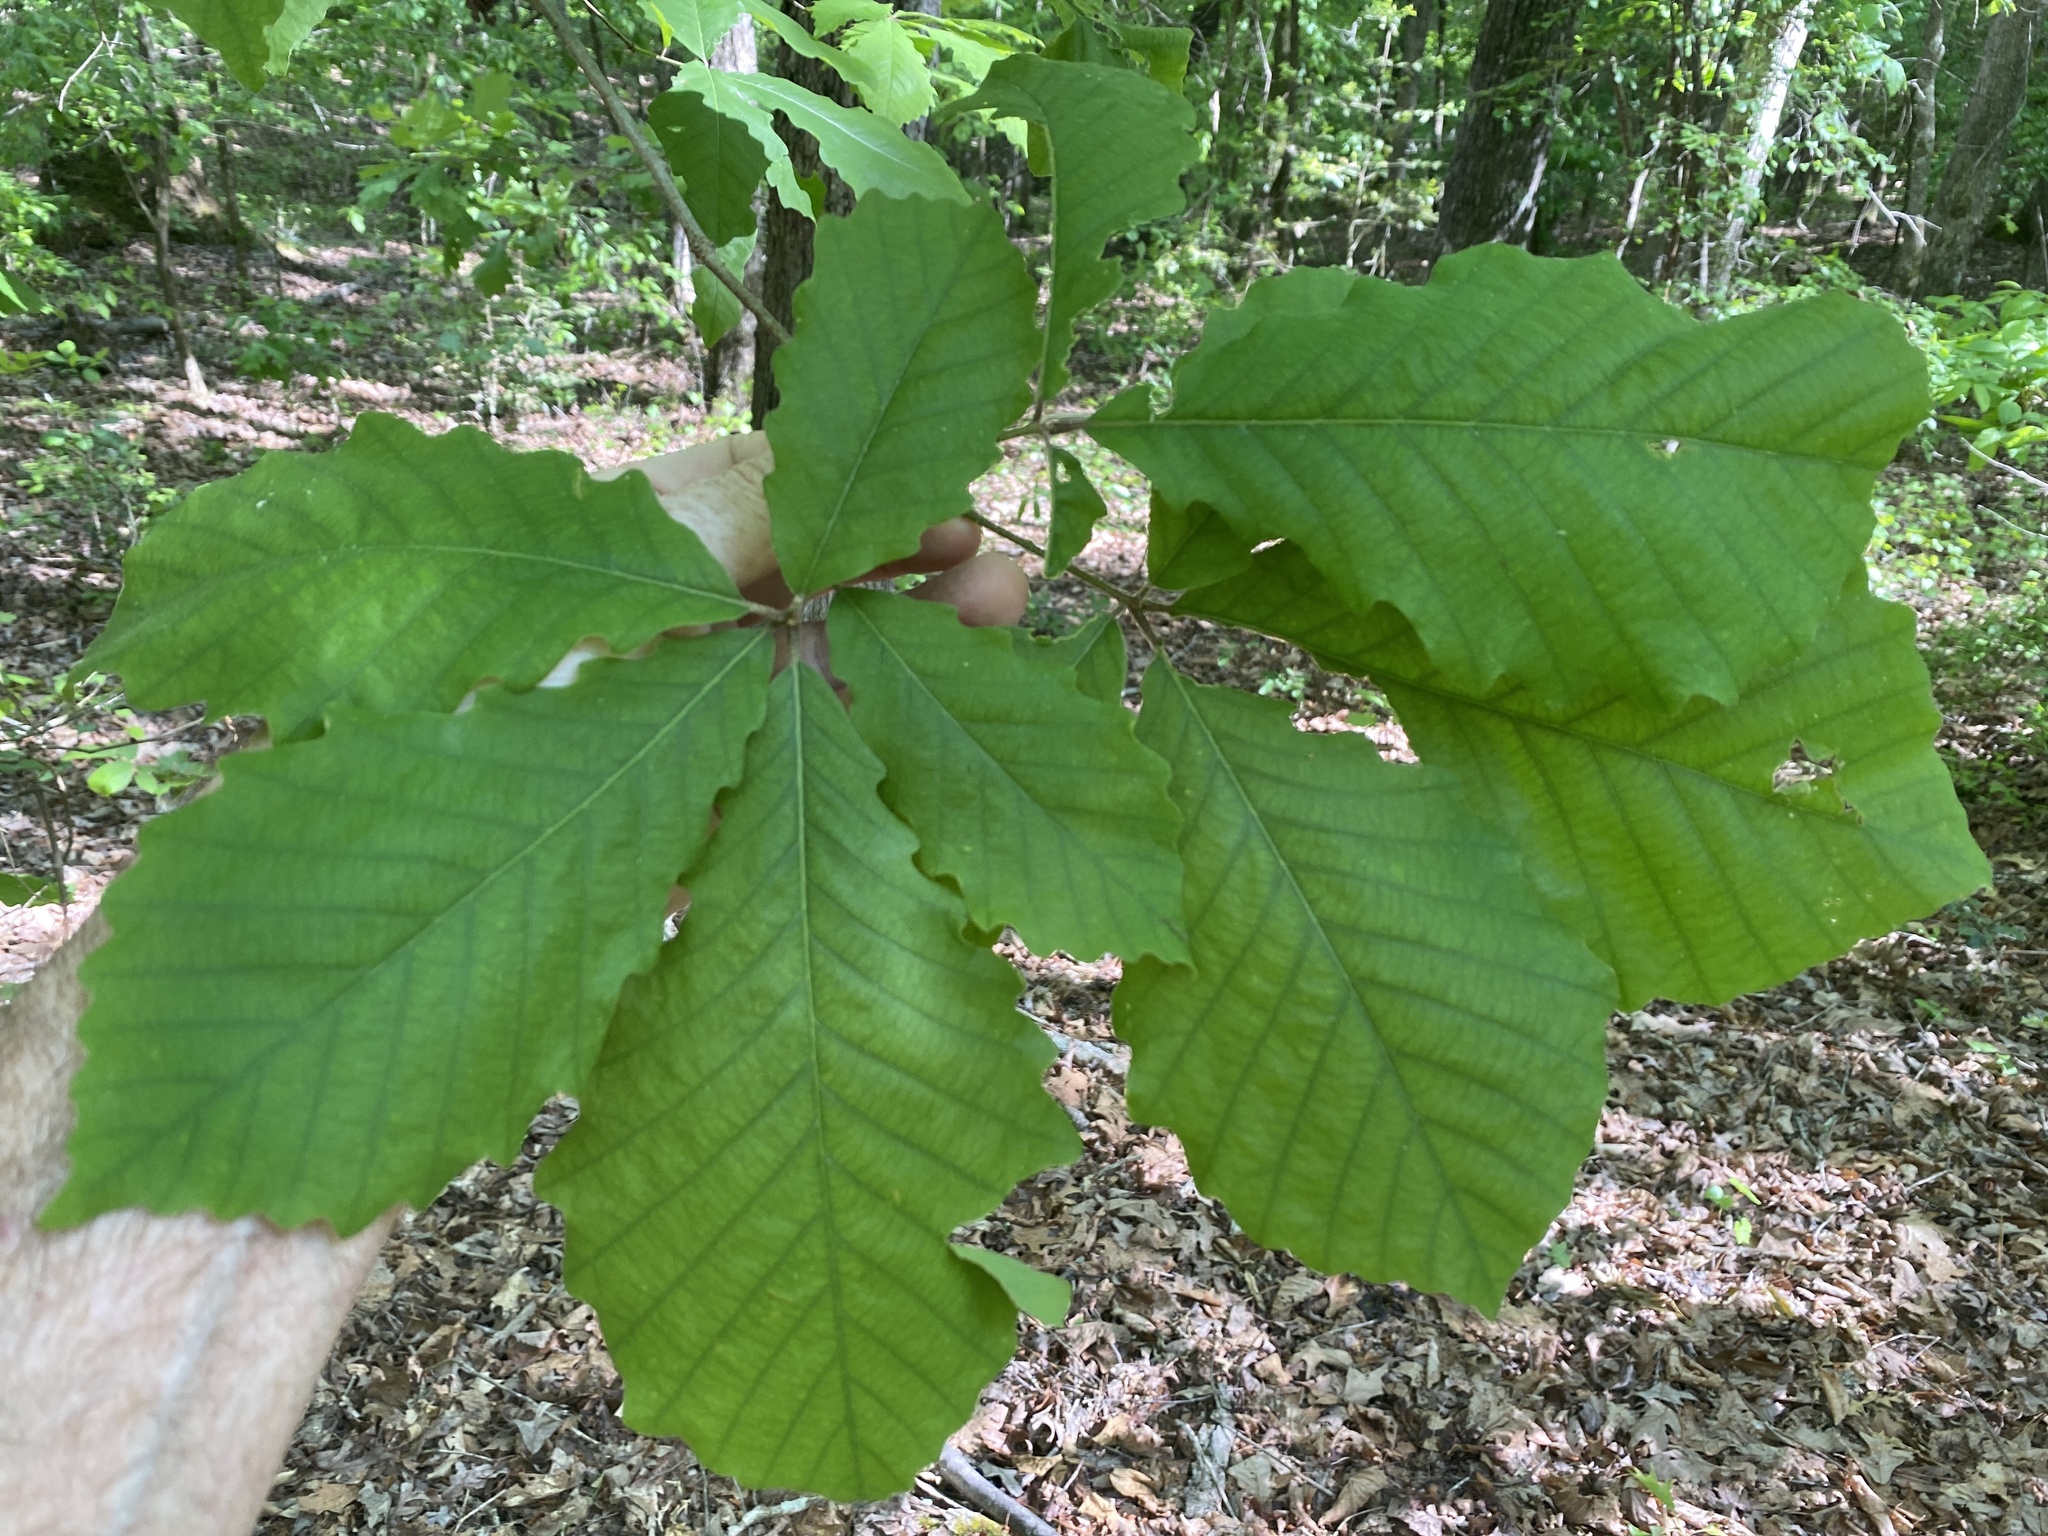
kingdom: Plantae
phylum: Tracheophyta
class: Magnoliopsida
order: Fagales
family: Fagaceae
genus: Quercus
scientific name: Quercus michauxii
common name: Swamp chestnut oak
